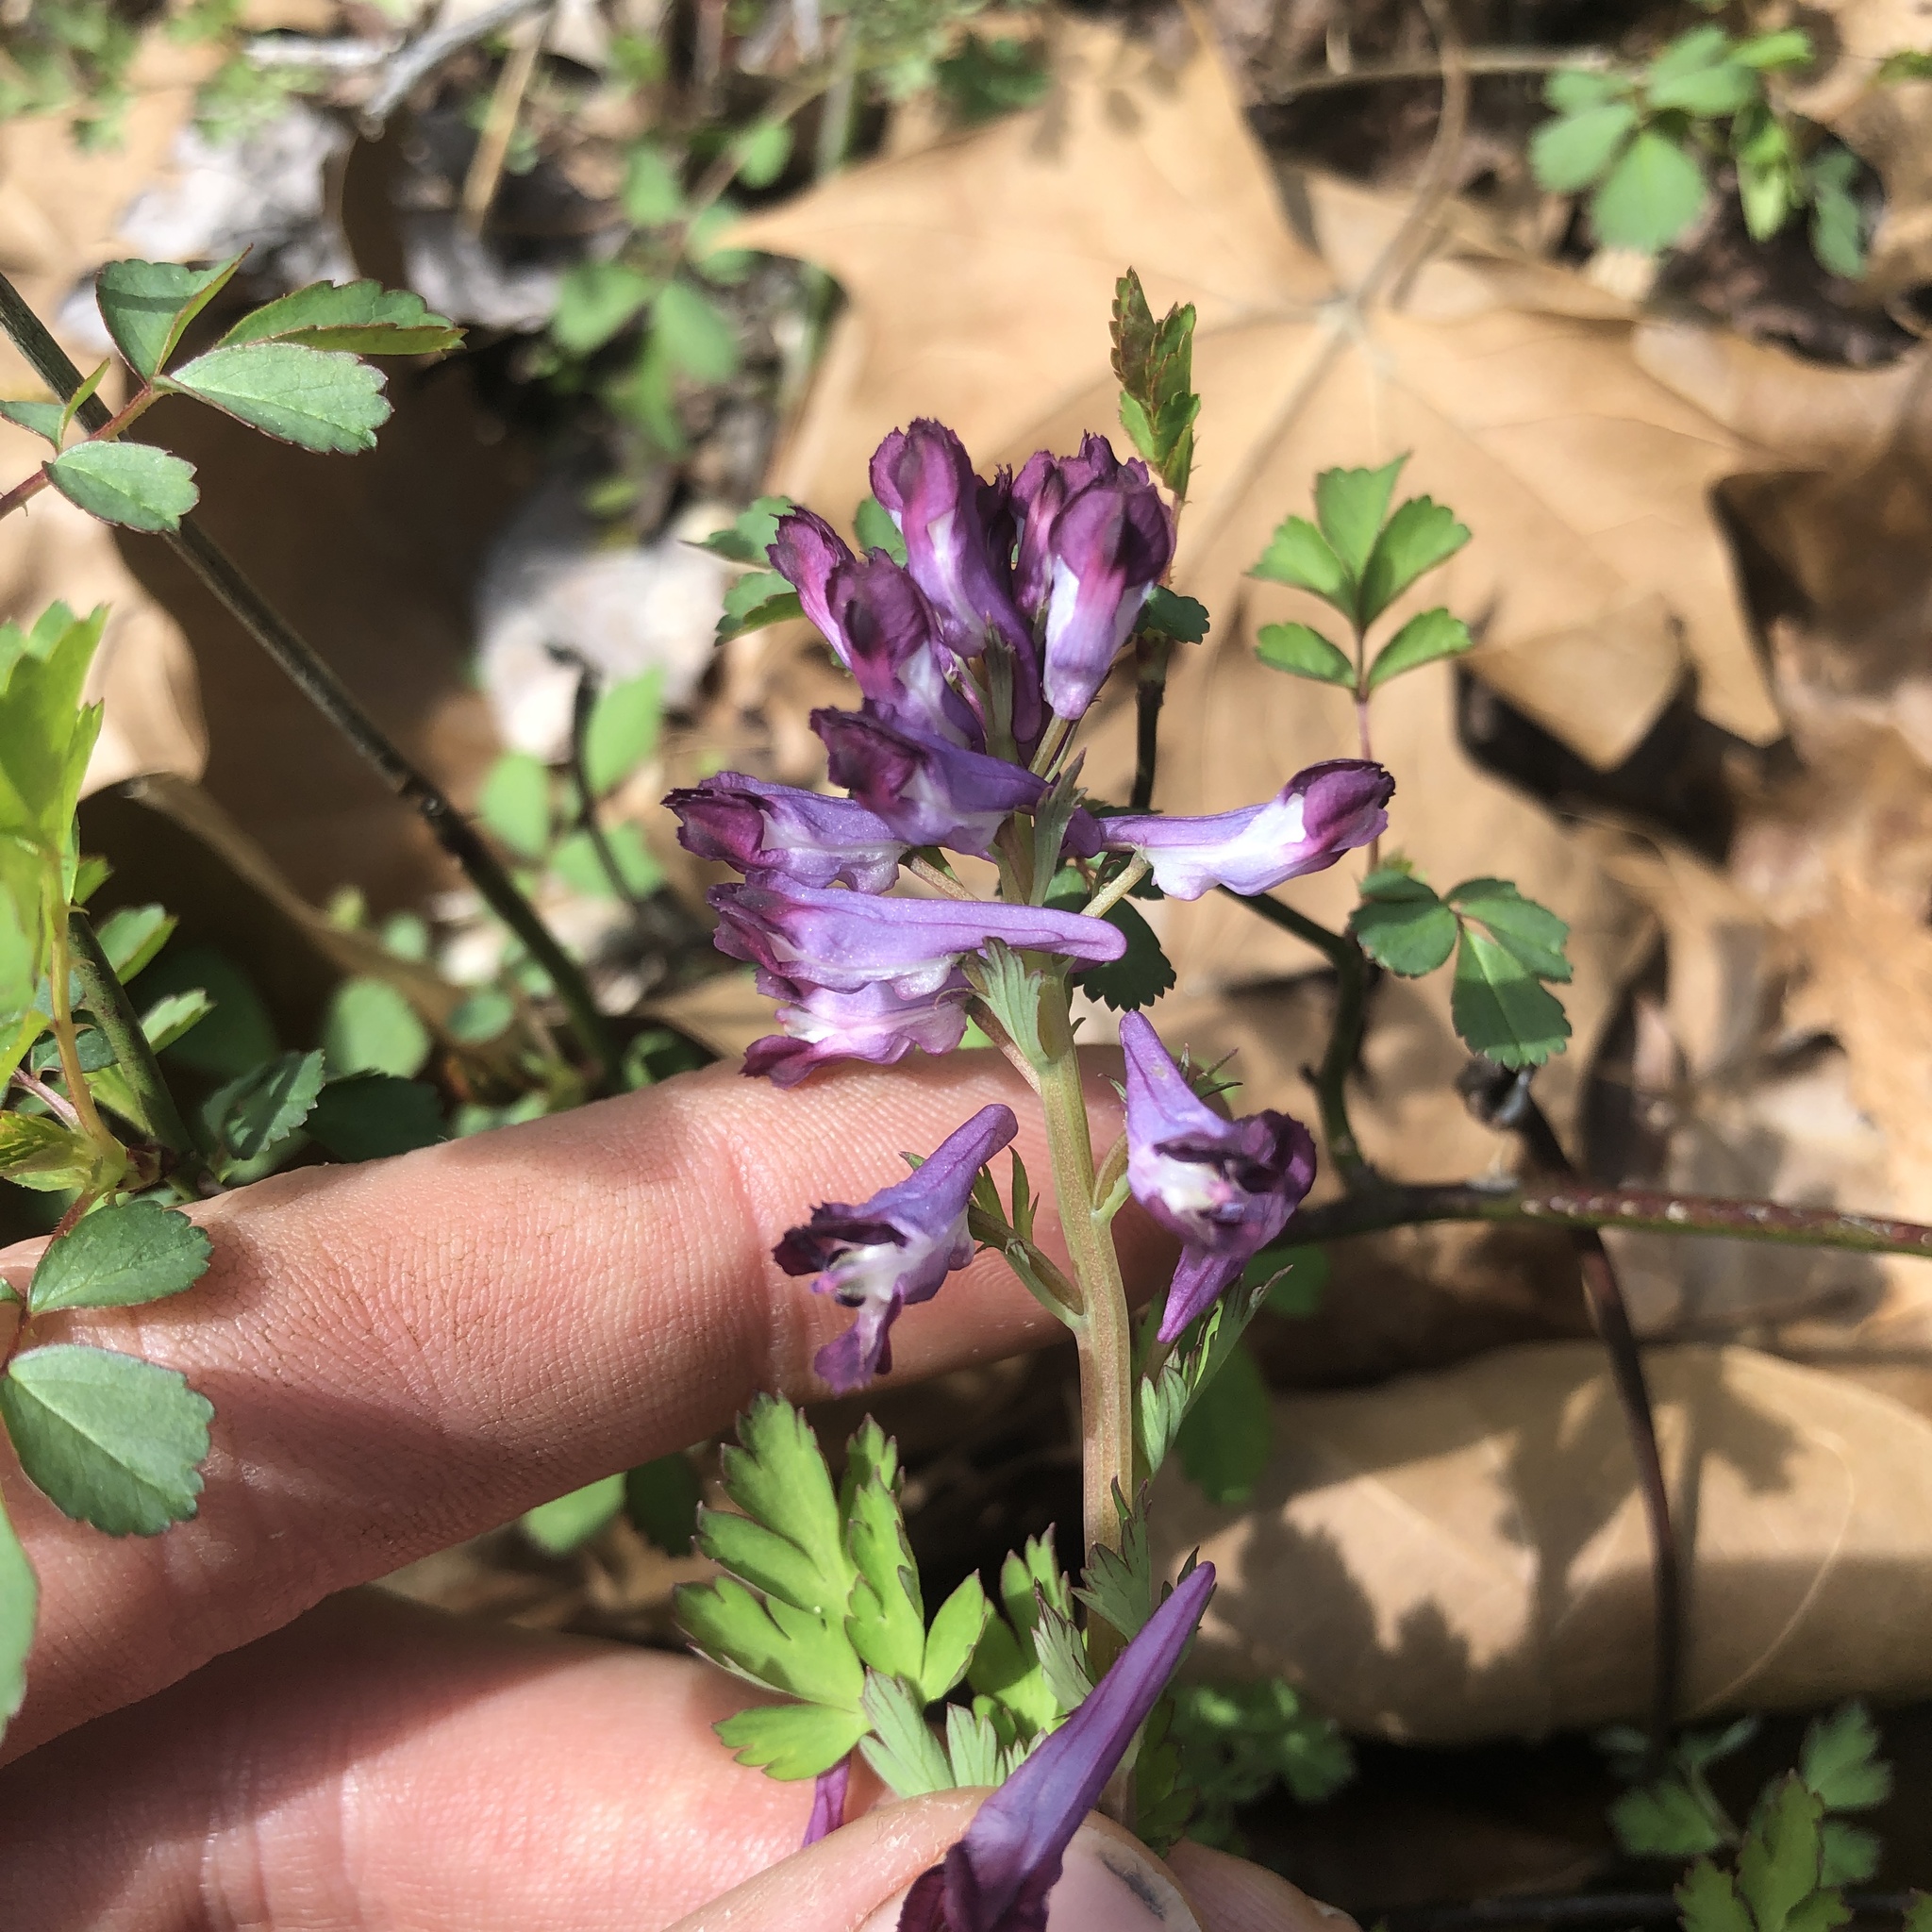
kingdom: Plantae
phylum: Tracheophyta
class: Magnoliopsida
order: Ranunculales
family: Papaveraceae
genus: Corydalis
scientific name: Corydalis incisa
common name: Incised fumewort
